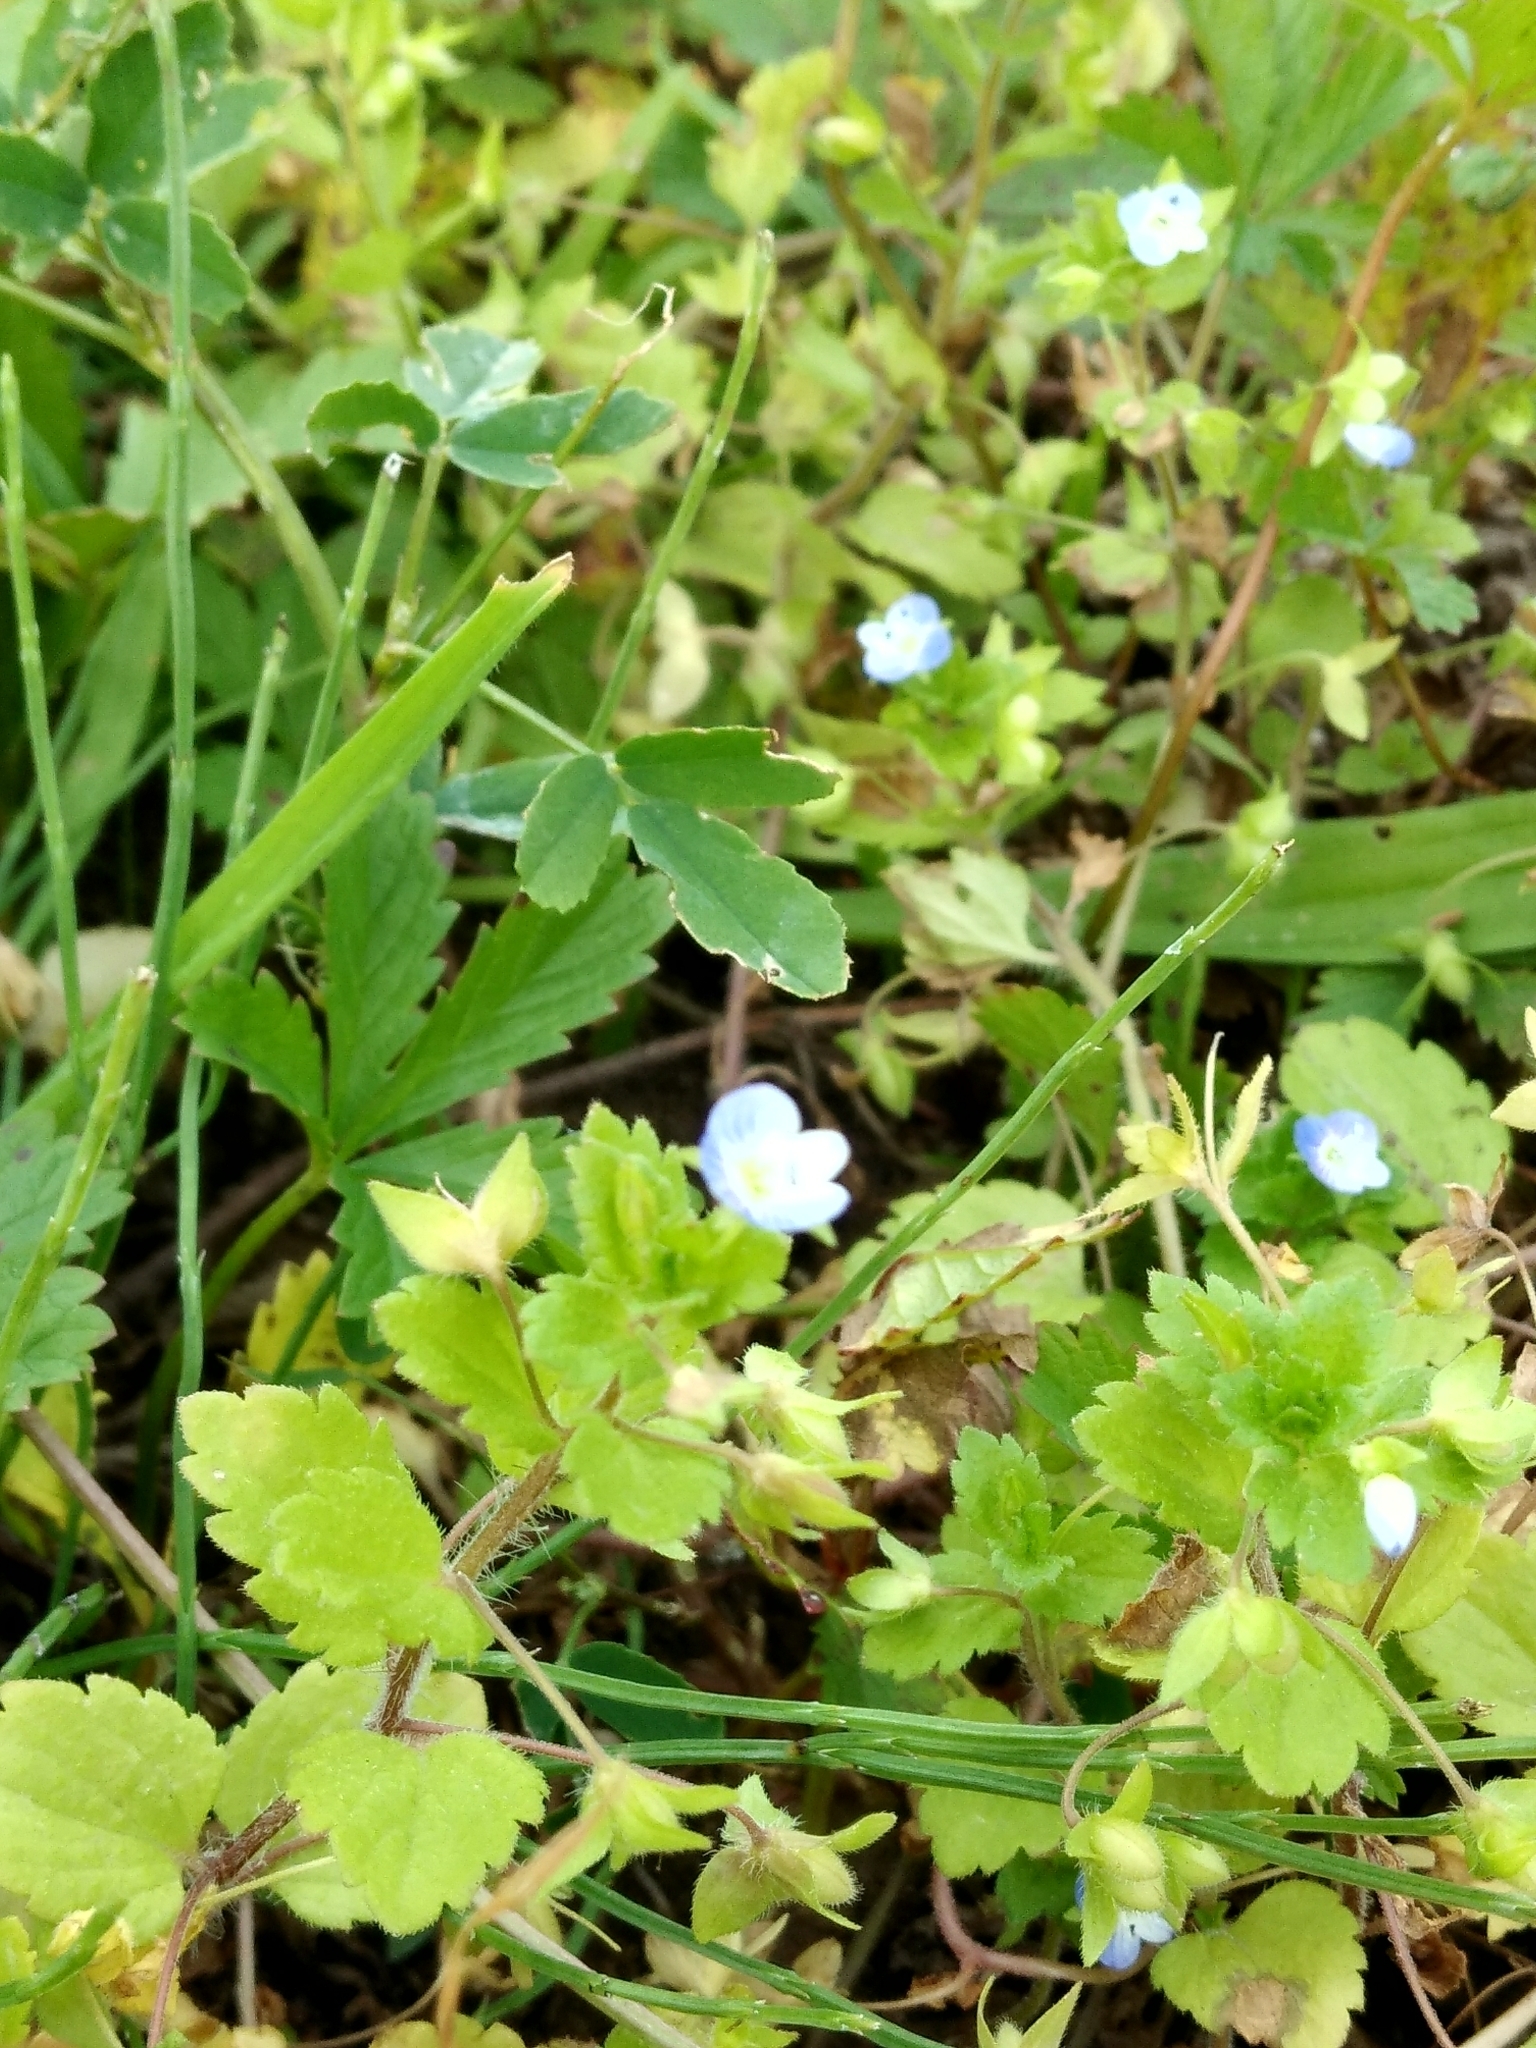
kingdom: Plantae
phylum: Tracheophyta
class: Magnoliopsida
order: Lamiales
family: Plantaginaceae
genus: Veronica
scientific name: Veronica persica
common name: Common field-speedwell
